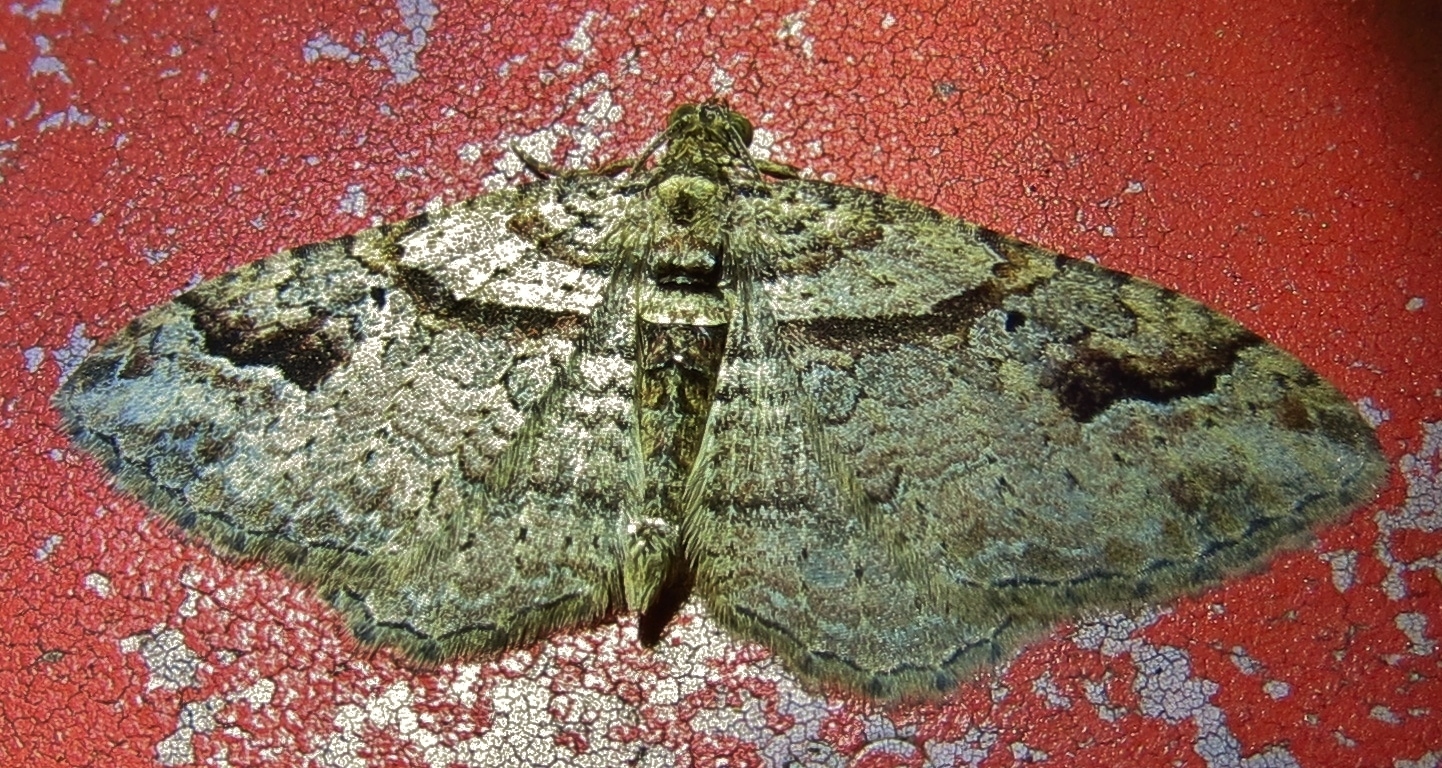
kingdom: Animalia
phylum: Arthropoda
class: Insecta
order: Lepidoptera
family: Geometridae
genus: Costaconvexa
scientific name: Costaconvexa centrostrigaria
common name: Bent-line carpet
